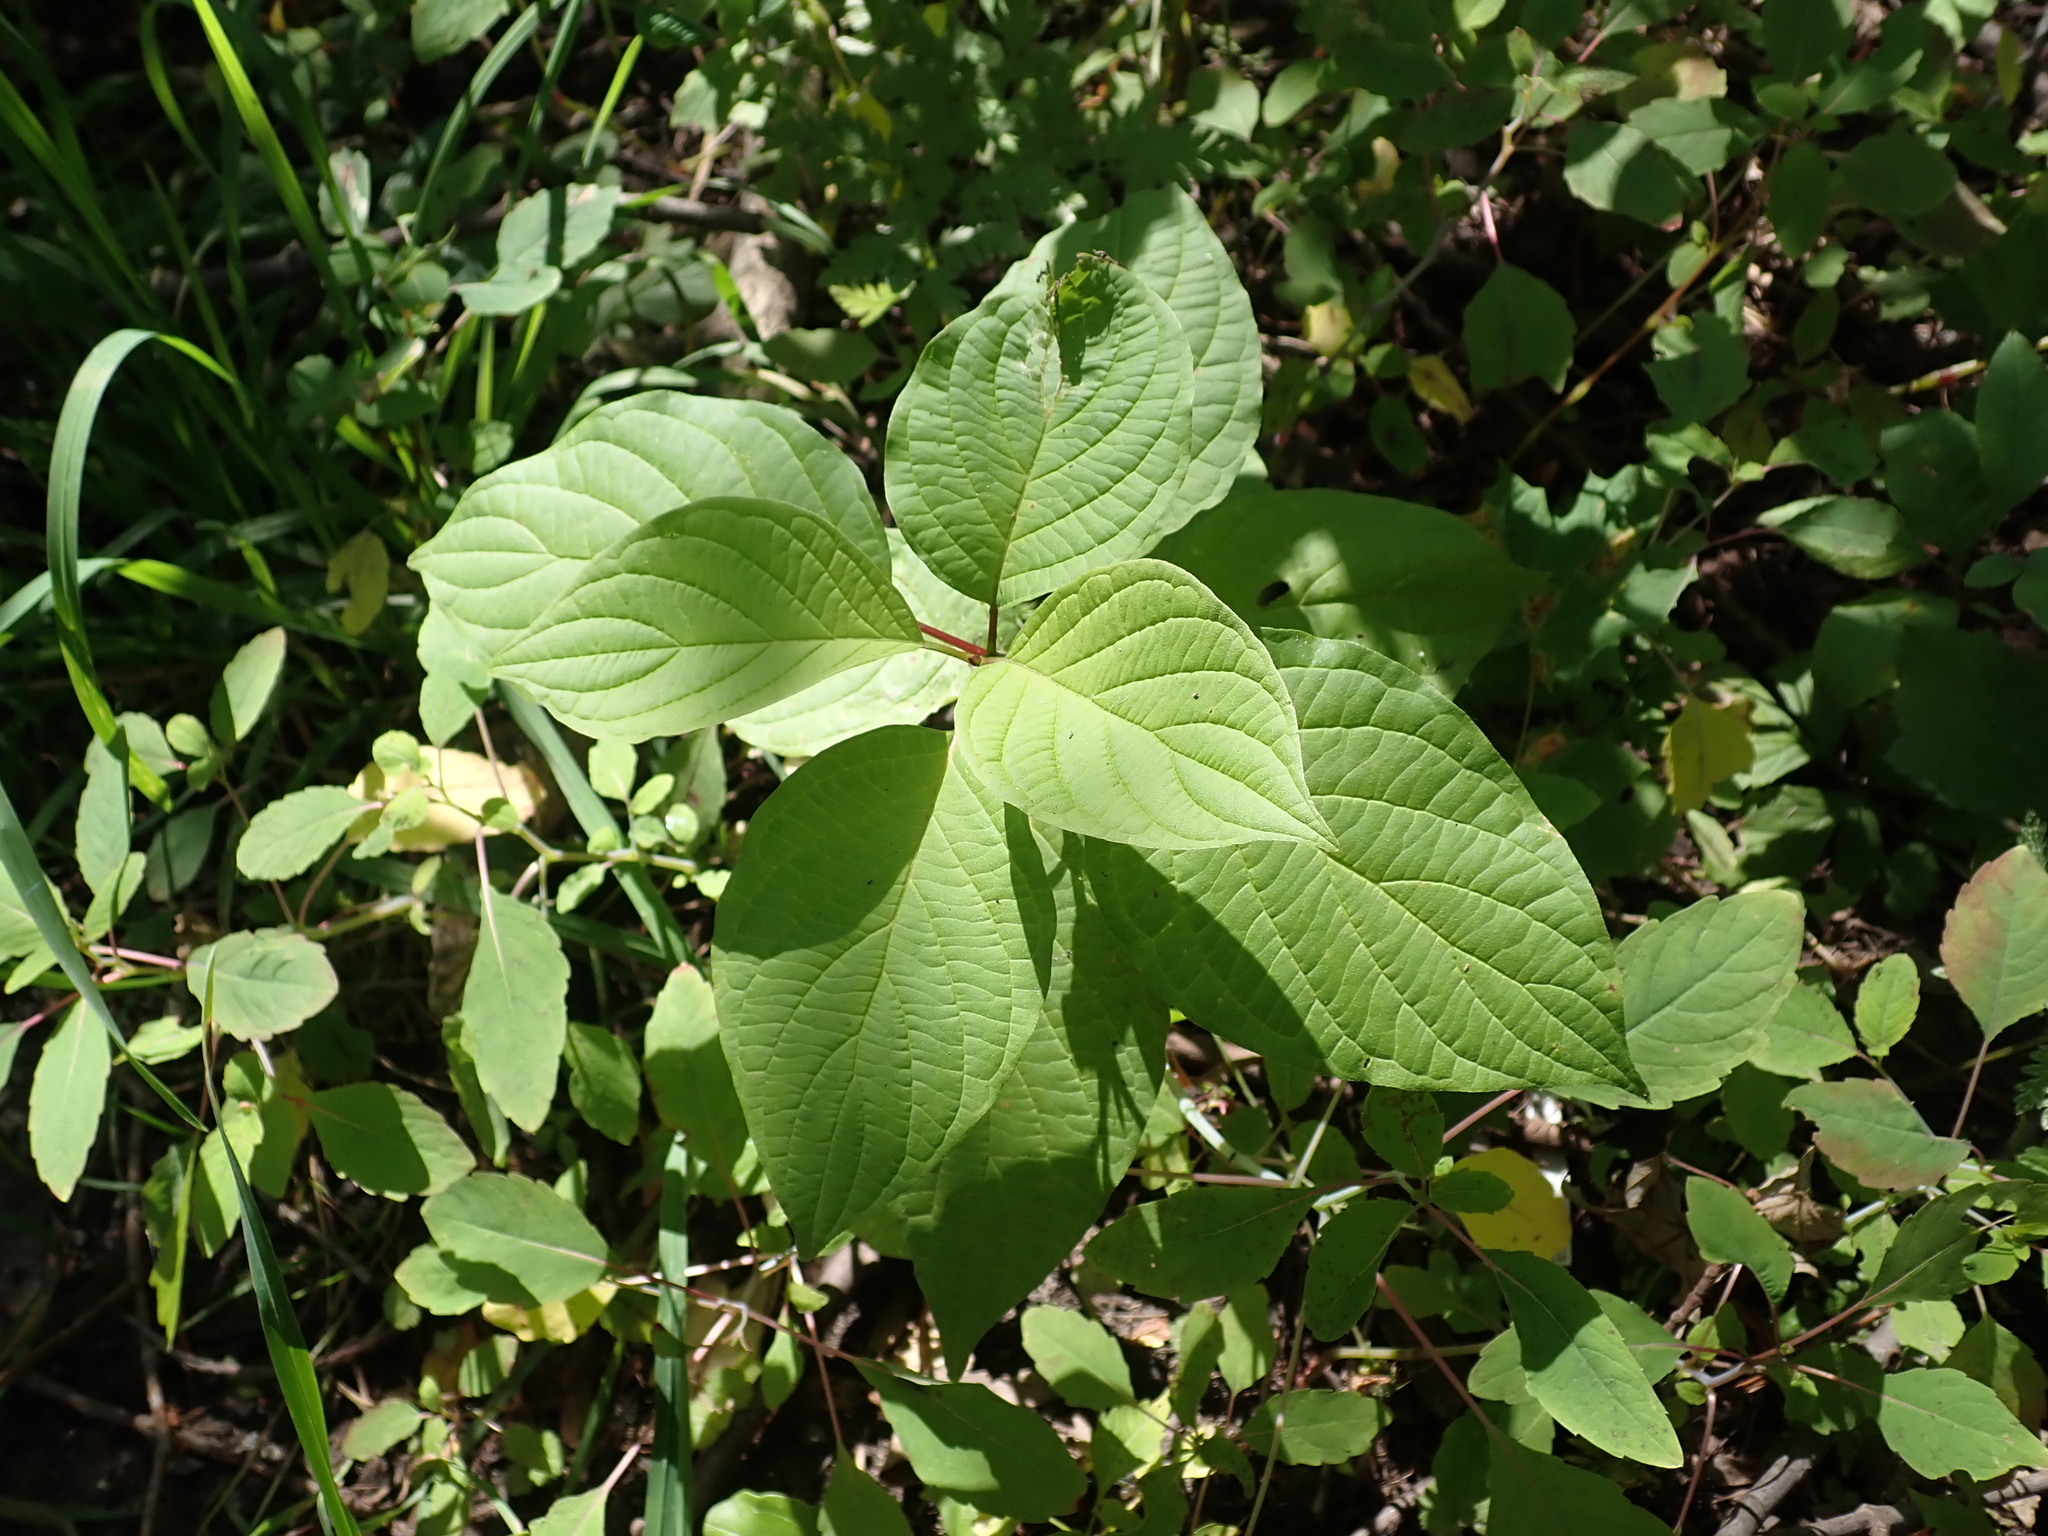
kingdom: Plantae
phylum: Tracheophyta
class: Magnoliopsida
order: Cornales
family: Cornaceae
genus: Cornus
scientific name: Cornus rugosa
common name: Round-leaf dogwood
